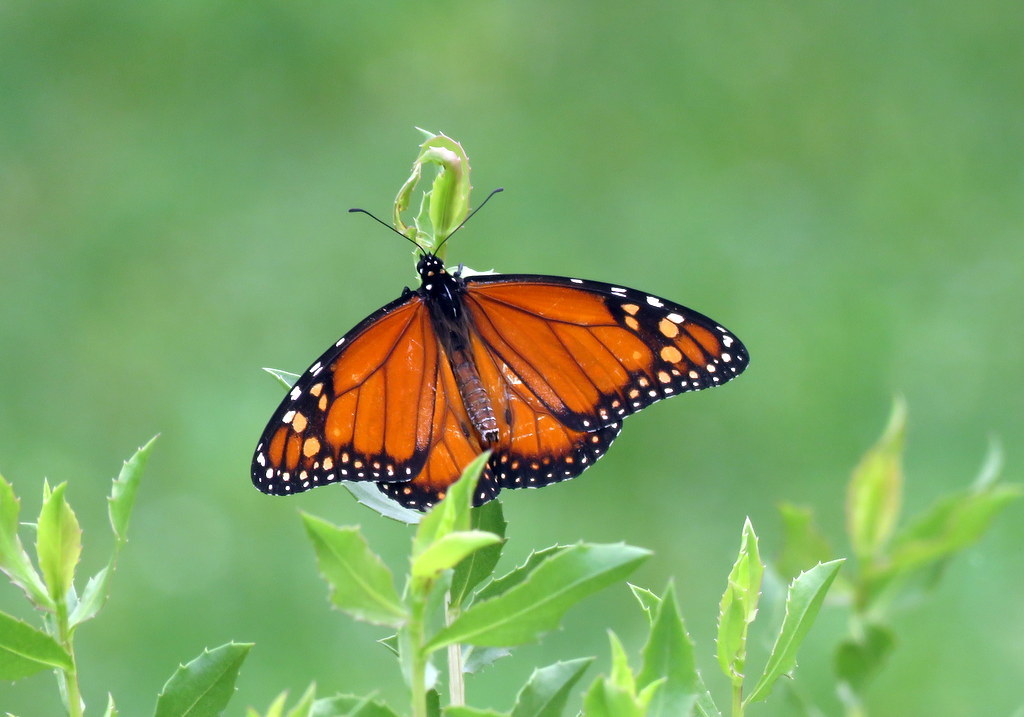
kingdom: Animalia
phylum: Arthropoda
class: Insecta
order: Lepidoptera
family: Nymphalidae
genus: Danaus
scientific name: Danaus erippus
